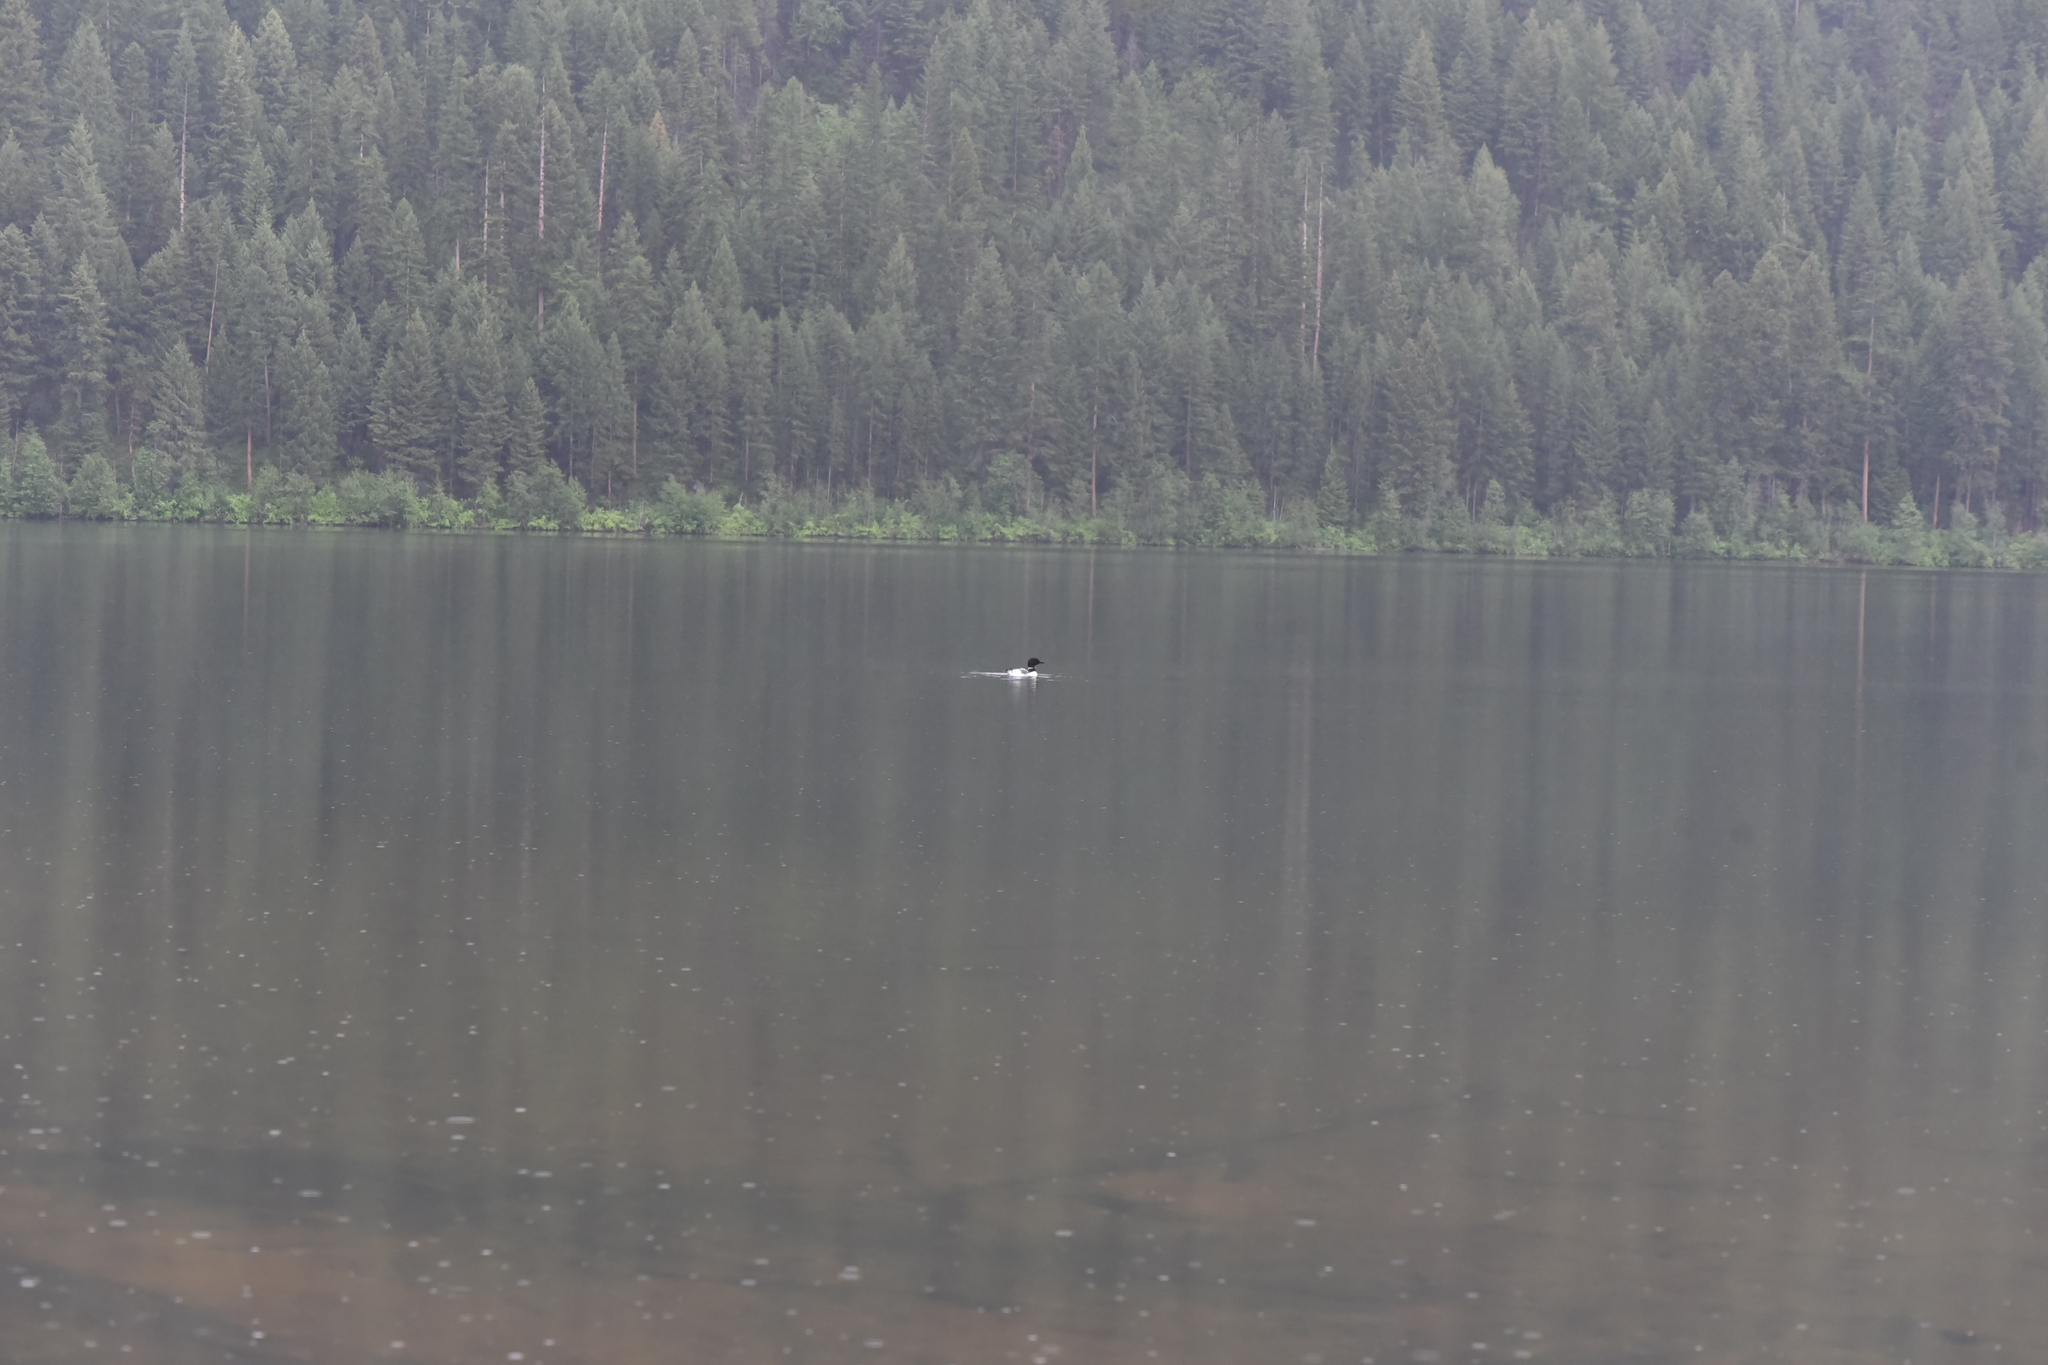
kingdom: Animalia
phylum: Chordata
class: Aves
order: Gaviiformes
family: Gaviidae
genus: Gavia
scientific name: Gavia immer
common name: Common loon
